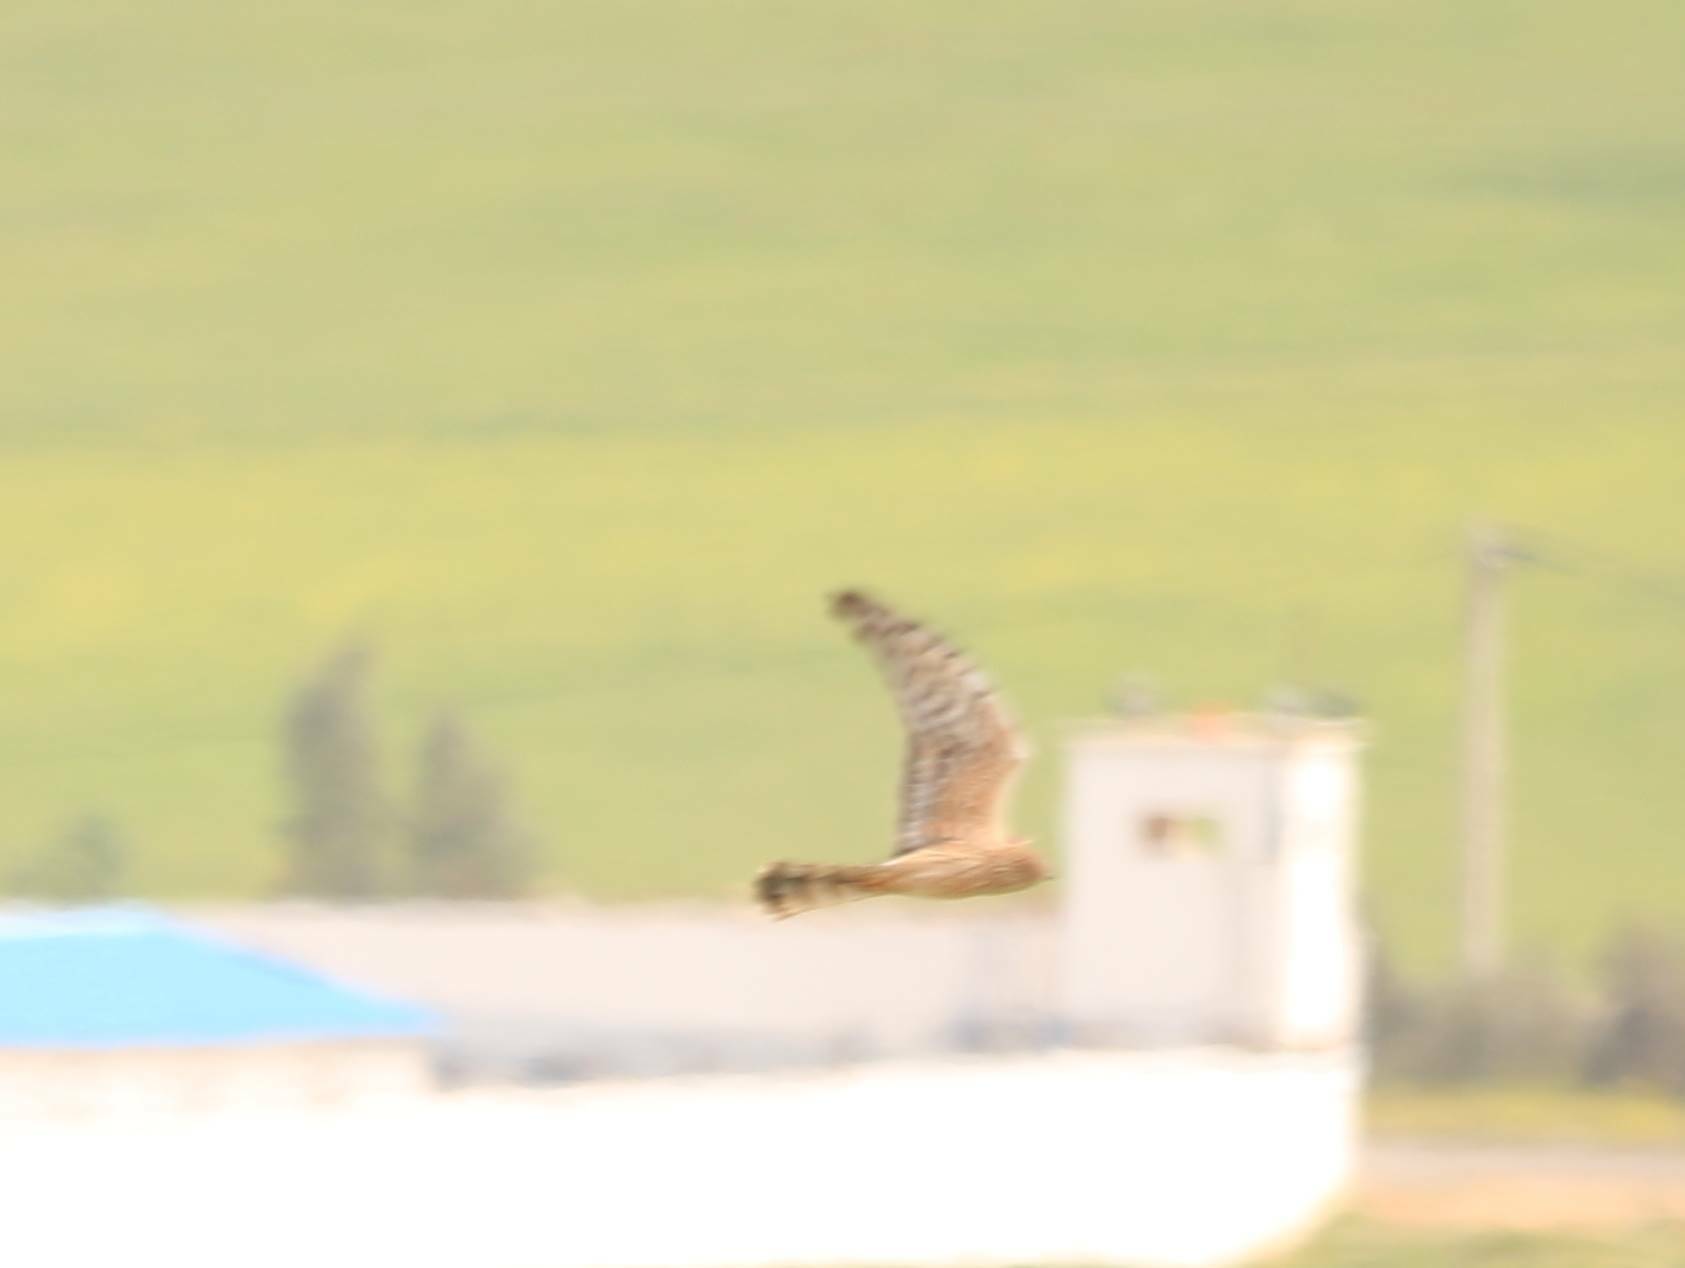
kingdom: Animalia
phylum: Chordata
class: Aves
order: Accipitriformes
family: Accipitridae
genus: Circus
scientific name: Circus pygargus
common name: Montagu's harrier
